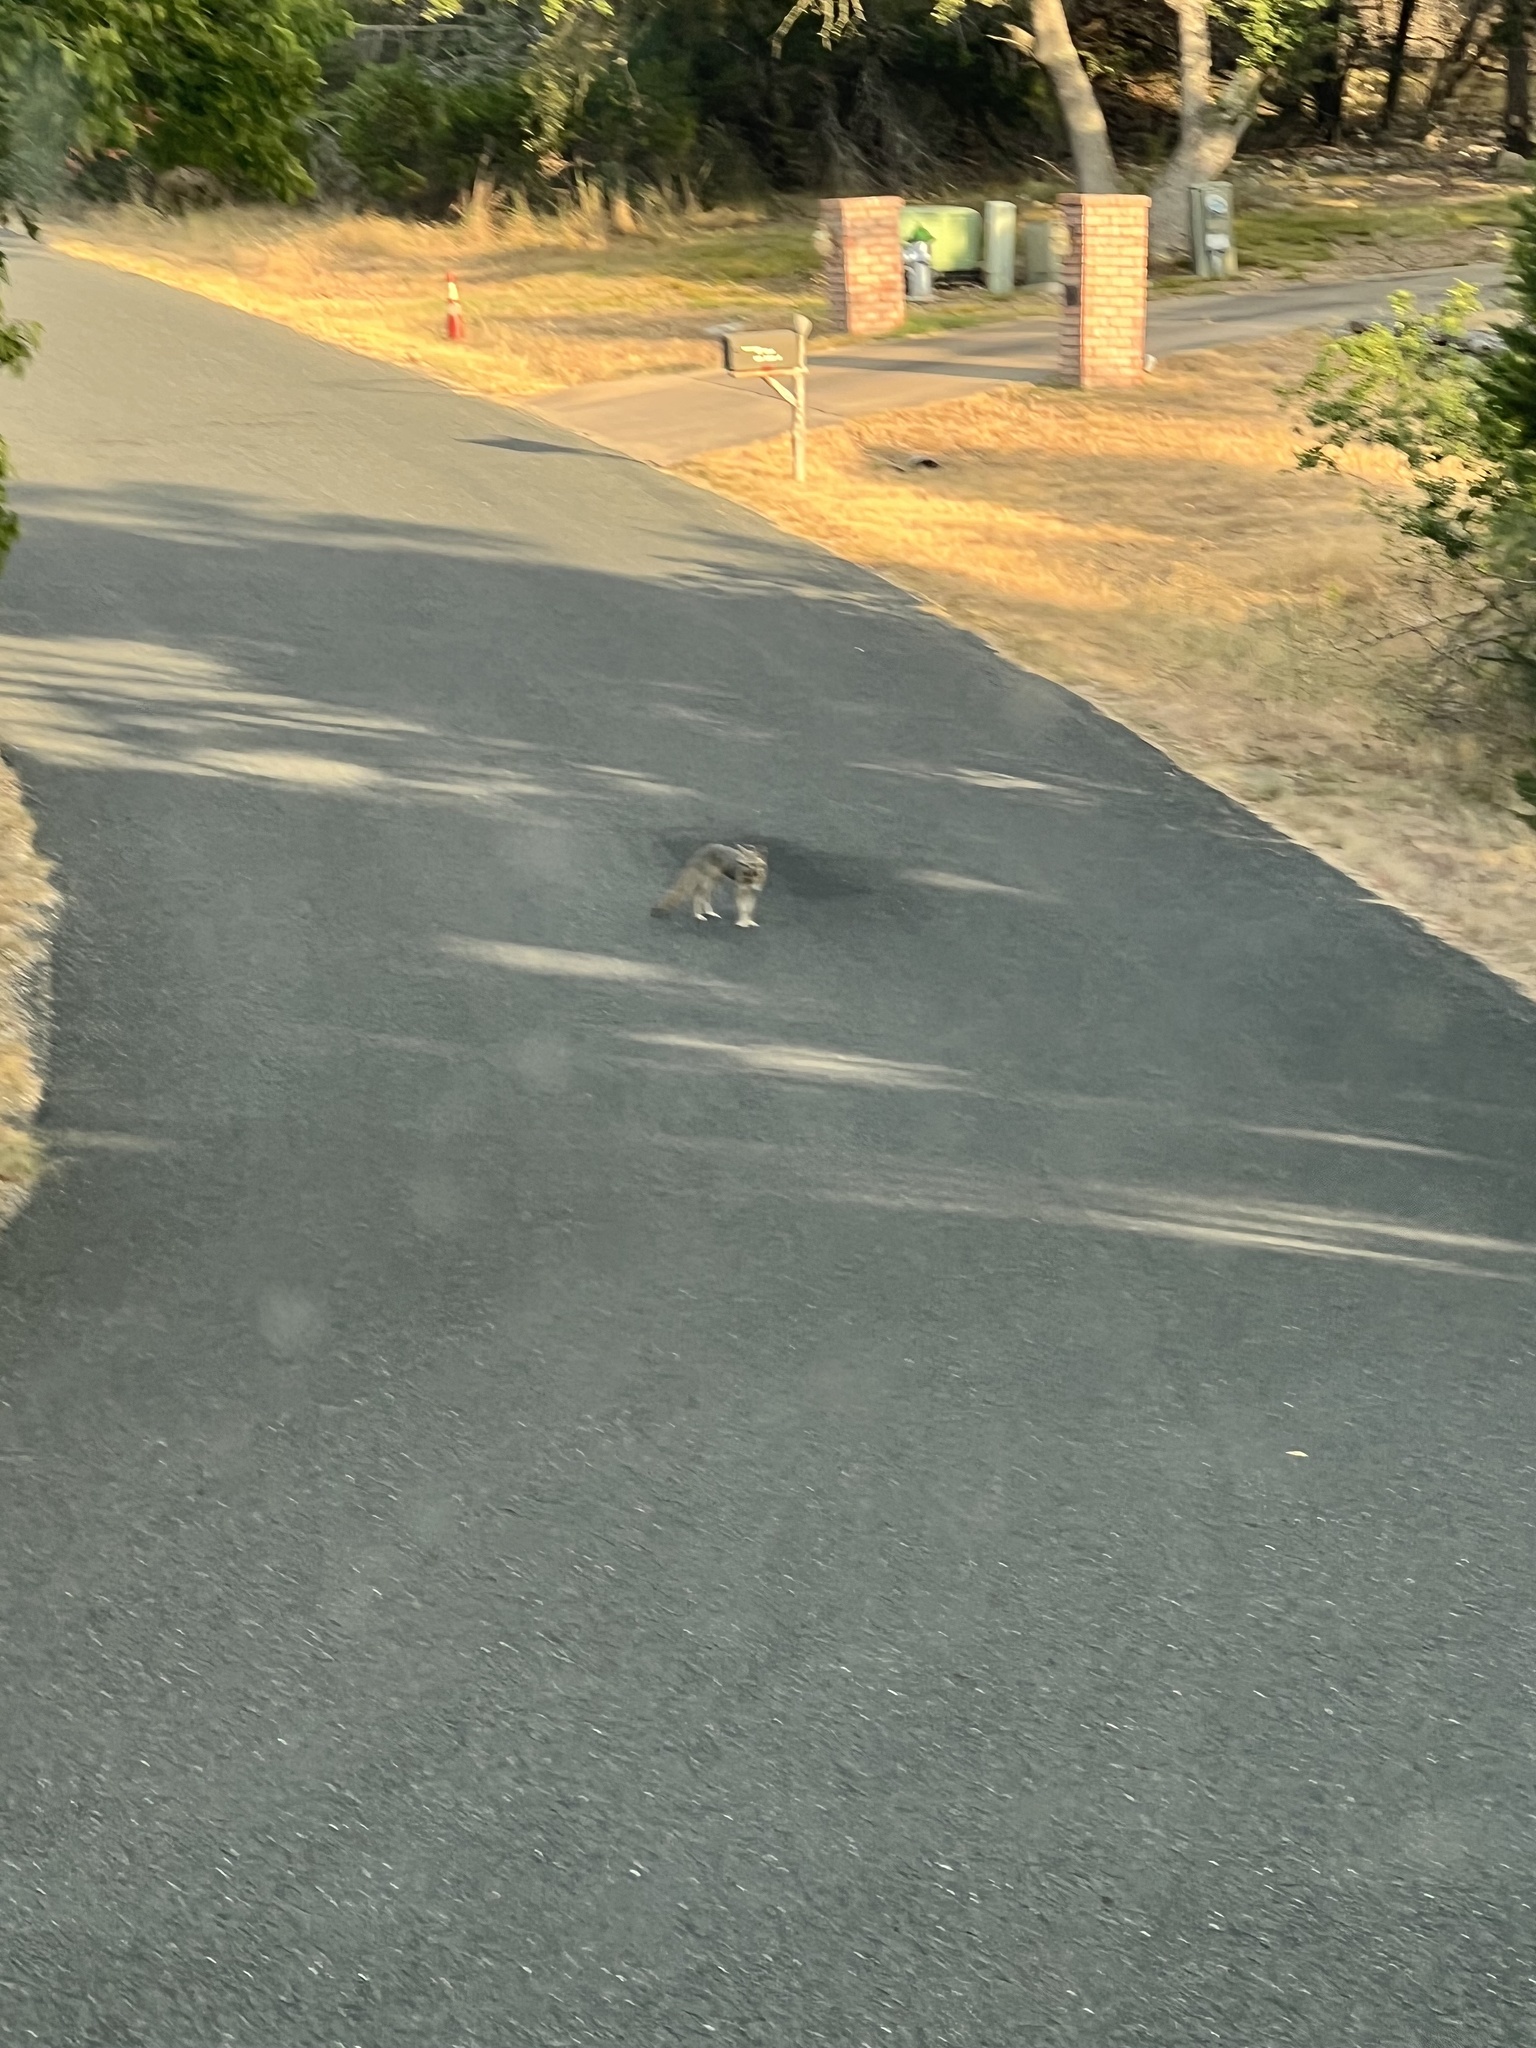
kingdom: Animalia
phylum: Chordata
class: Mammalia
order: Carnivora
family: Canidae
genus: Urocyon
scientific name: Urocyon cinereoargenteus
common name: Gray fox
